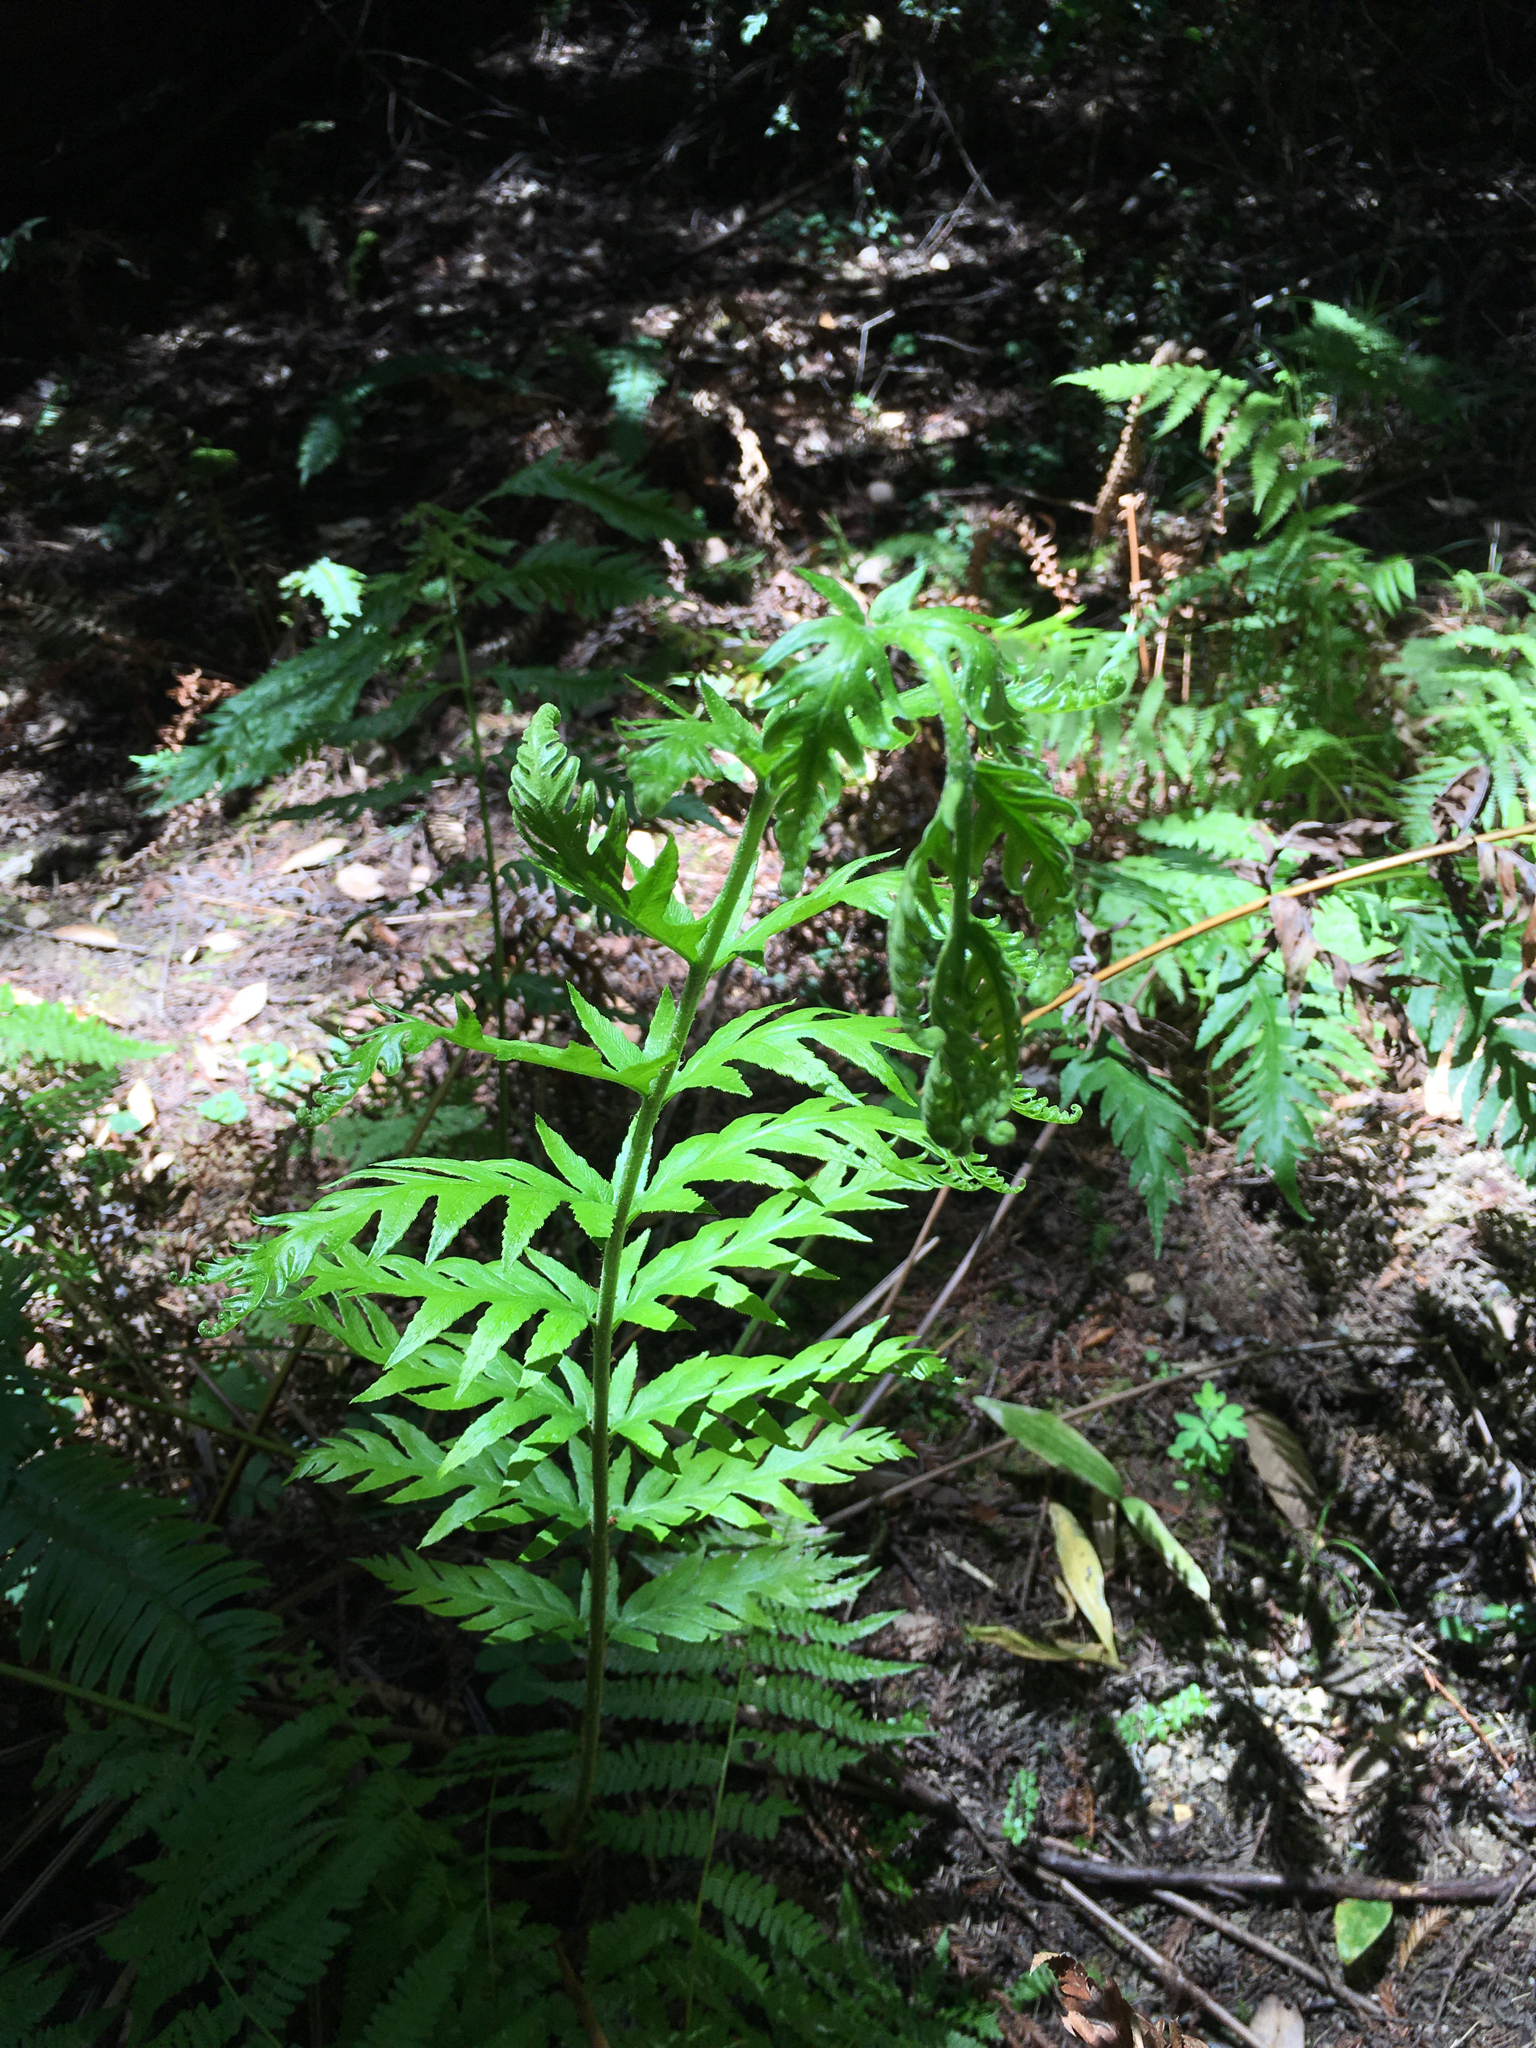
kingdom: Plantae
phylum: Tracheophyta
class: Polypodiopsida
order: Polypodiales
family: Blechnaceae
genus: Woodwardia
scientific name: Woodwardia fimbriata
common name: Giant chain fern
